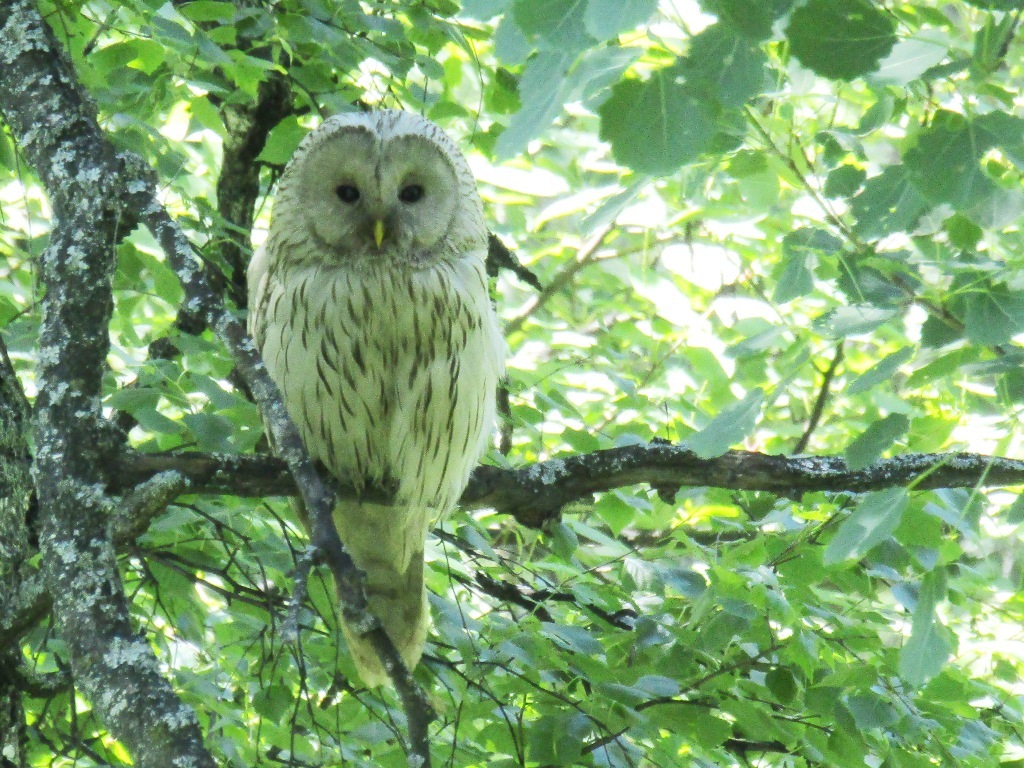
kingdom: Animalia
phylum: Chordata
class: Aves
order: Strigiformes
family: Strigidae
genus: Strix
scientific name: Strix uralensis
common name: Ural owl
